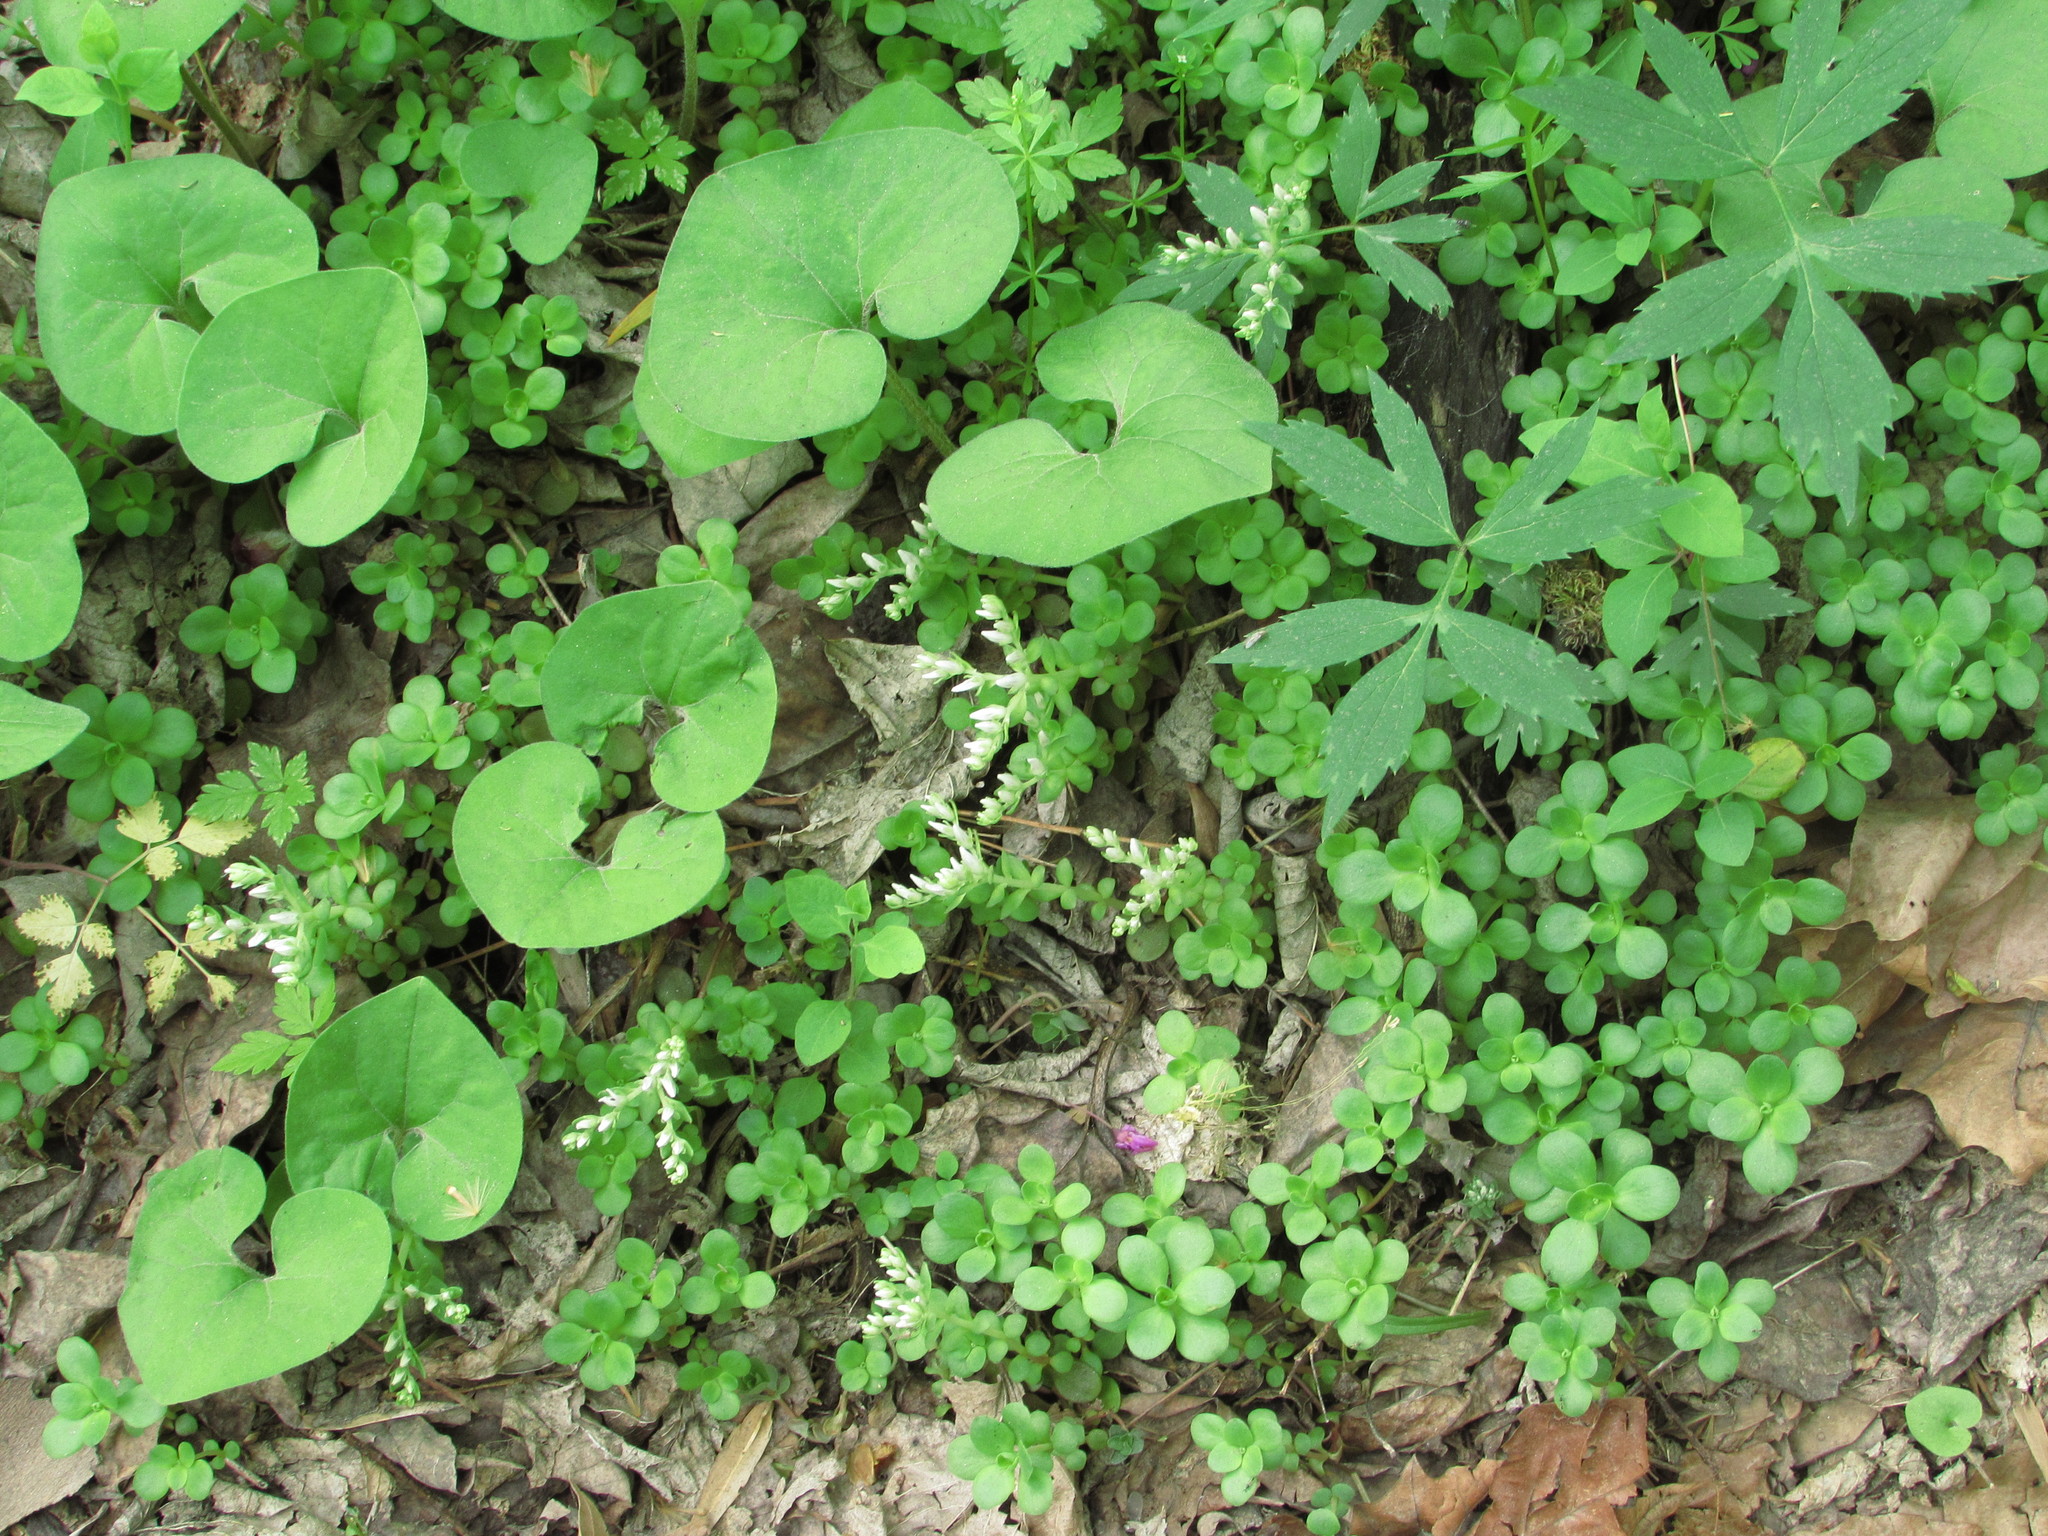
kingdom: Plantae
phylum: Tracheophyta
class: Magnoliopsida
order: Saxifragales
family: Crassulaceae
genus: Sedum
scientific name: Sedum ternatum
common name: Wild stonecrop
